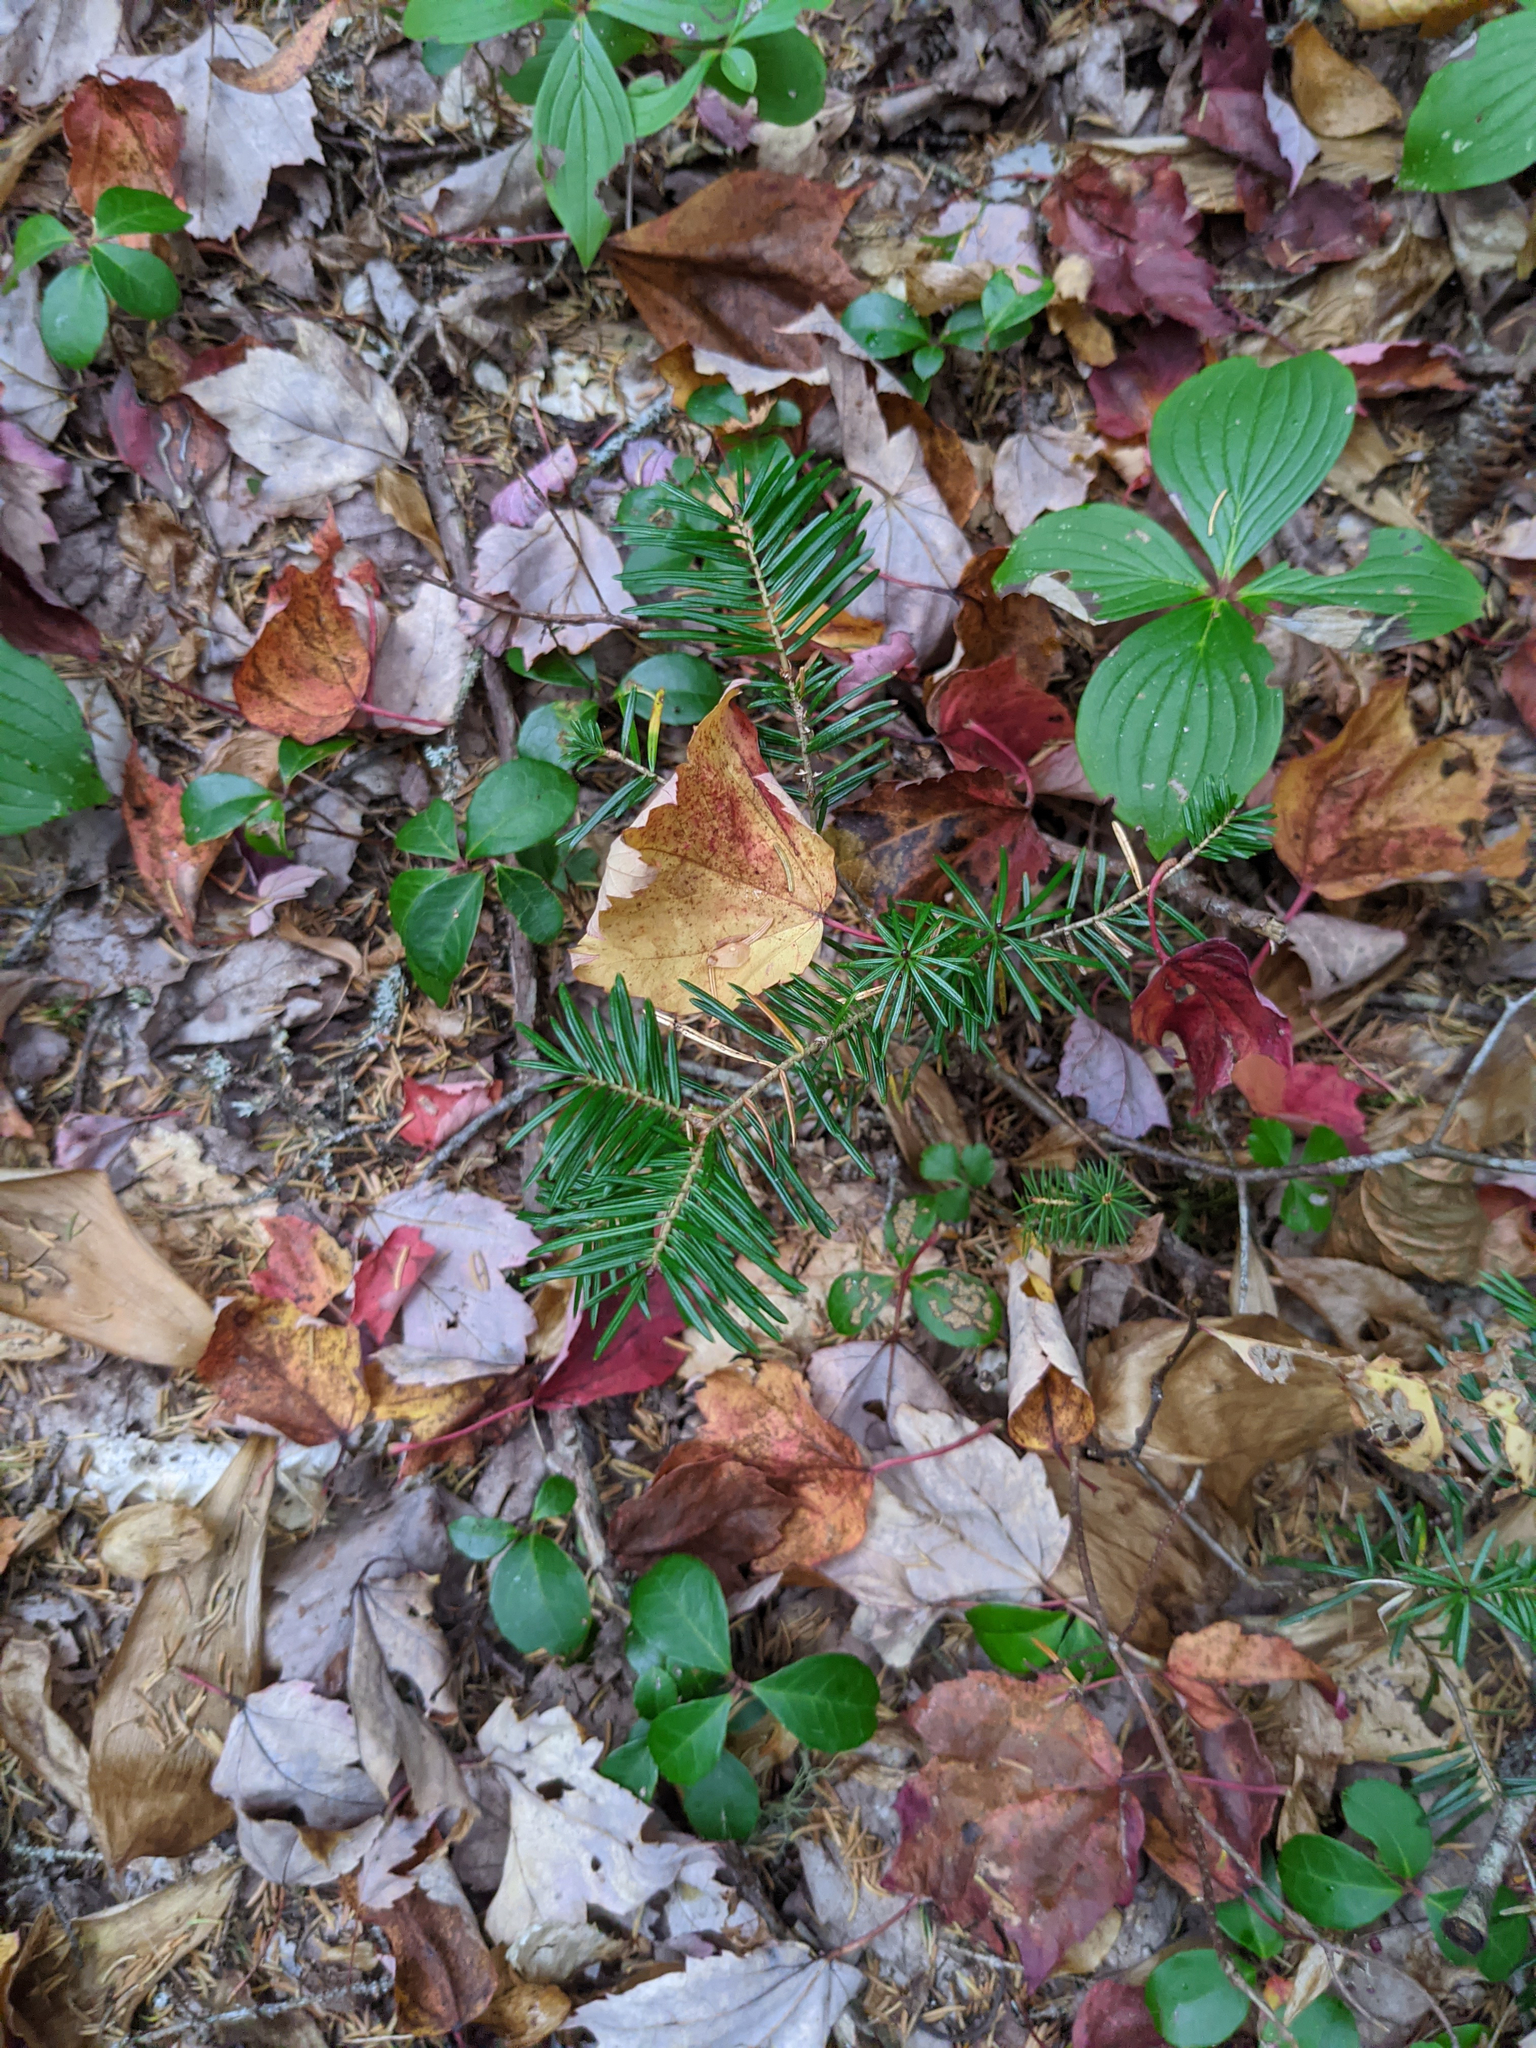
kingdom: Plantae
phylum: Tracheophyta
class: Pinopsida
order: Pinales
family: Pinaceae
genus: Abies
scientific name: Abies balsamea
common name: Balsam fir
